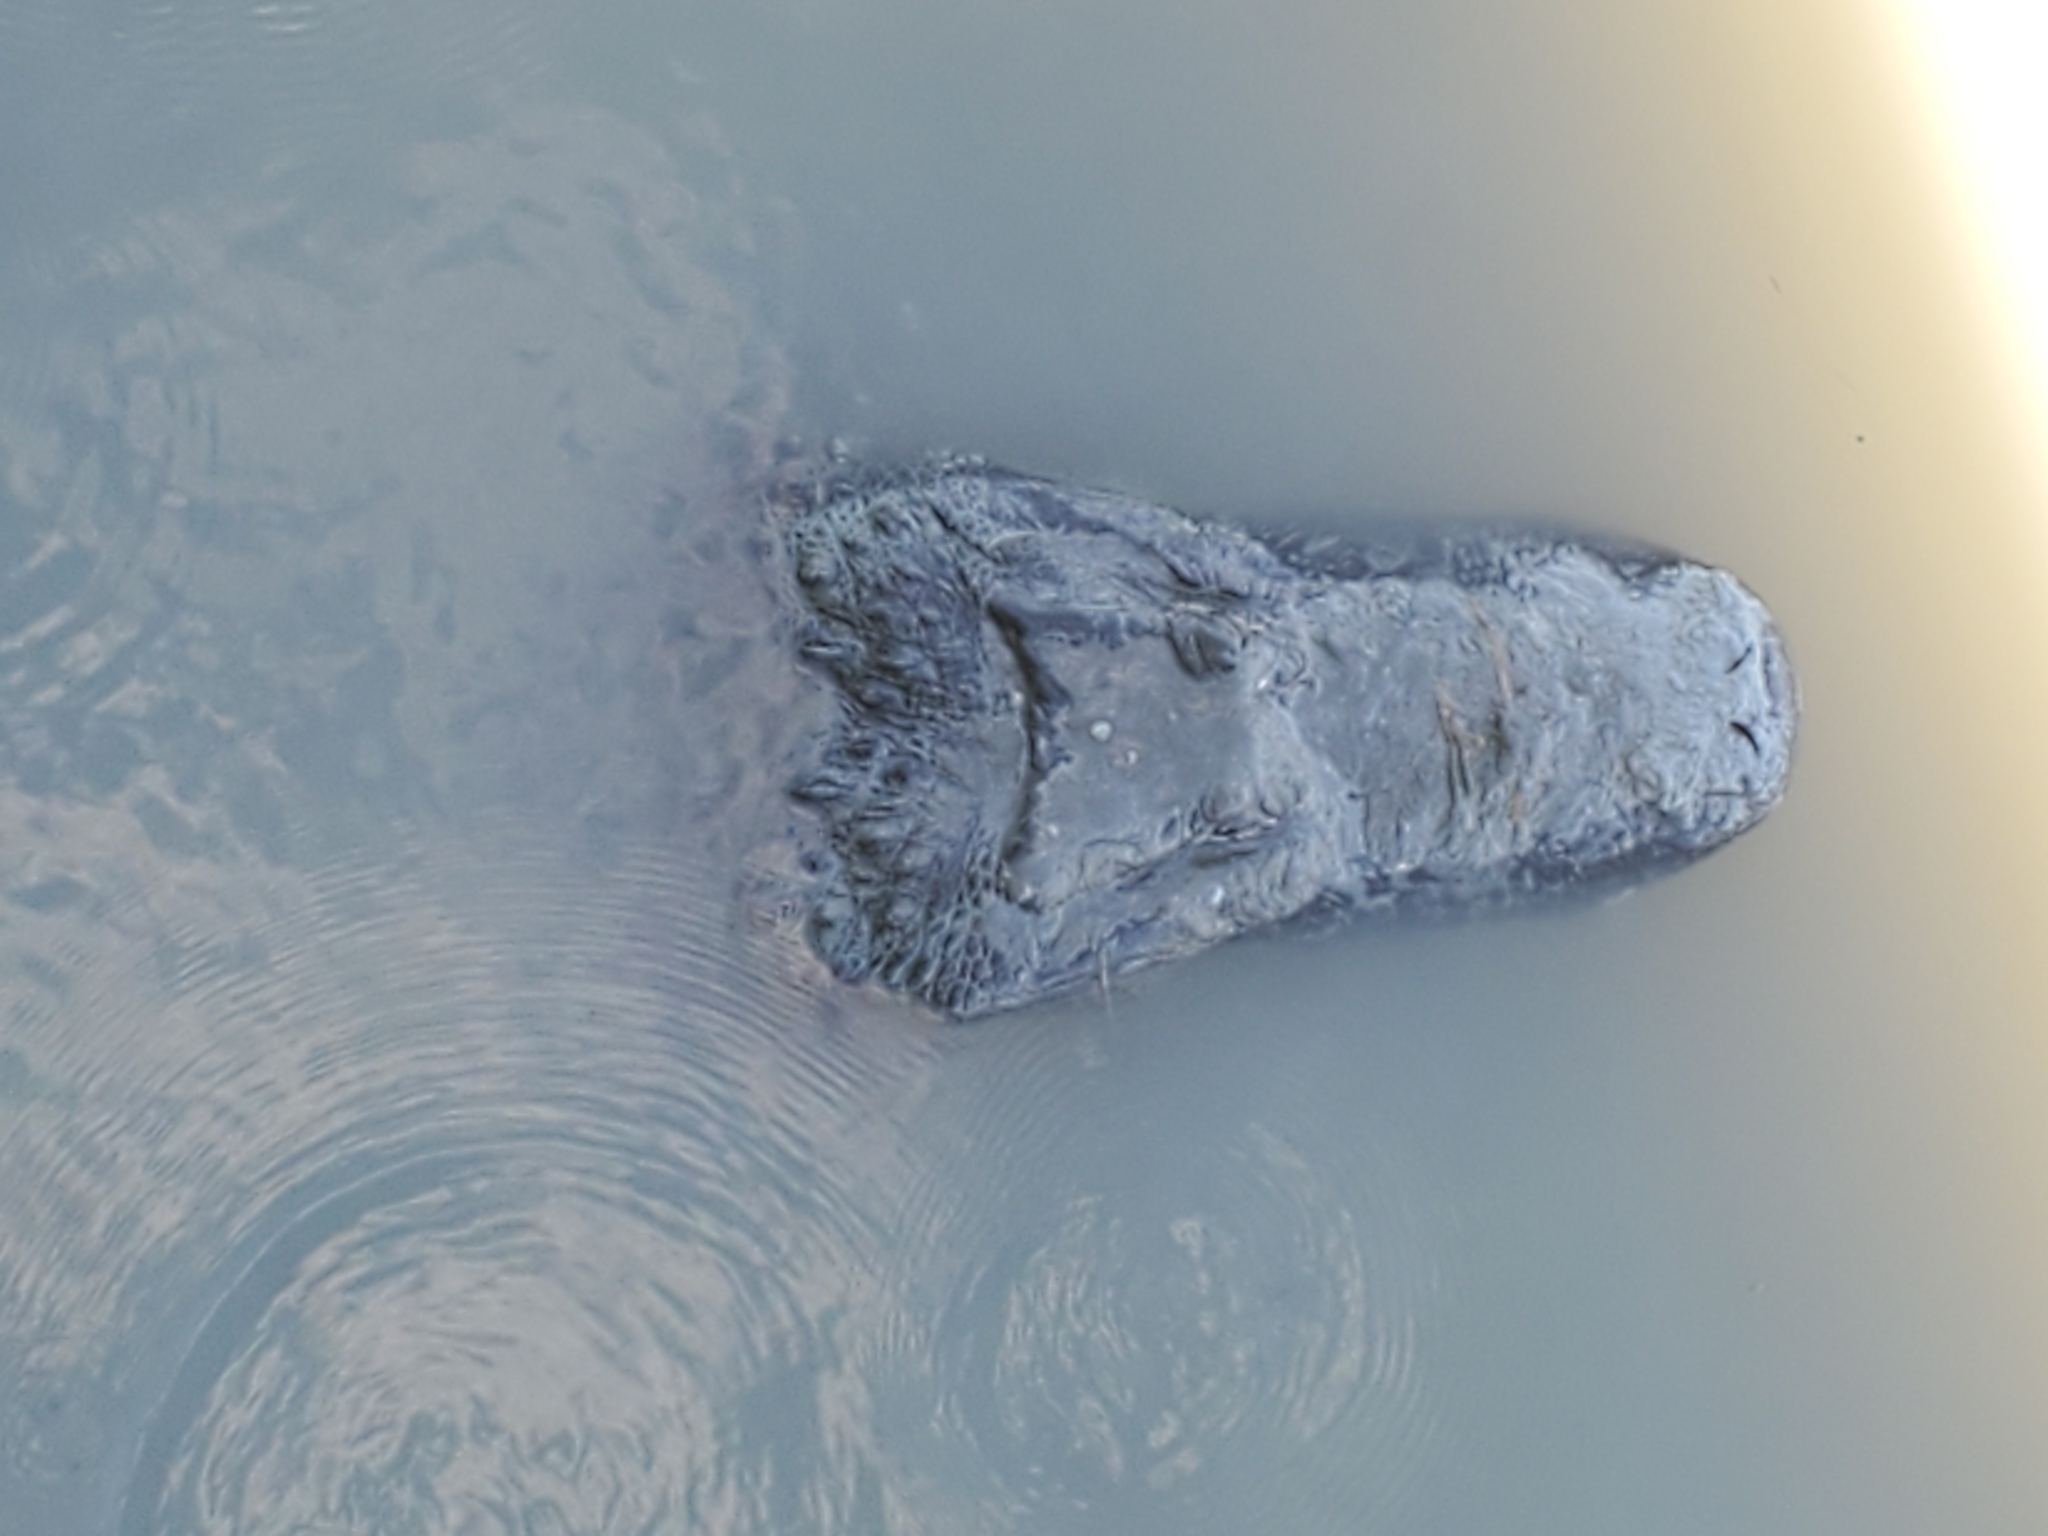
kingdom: Animalia
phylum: Chordata
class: Crocodylia
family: Alligatoridae
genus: Alligator
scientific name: Alligator mississippiensis
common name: American alligator
